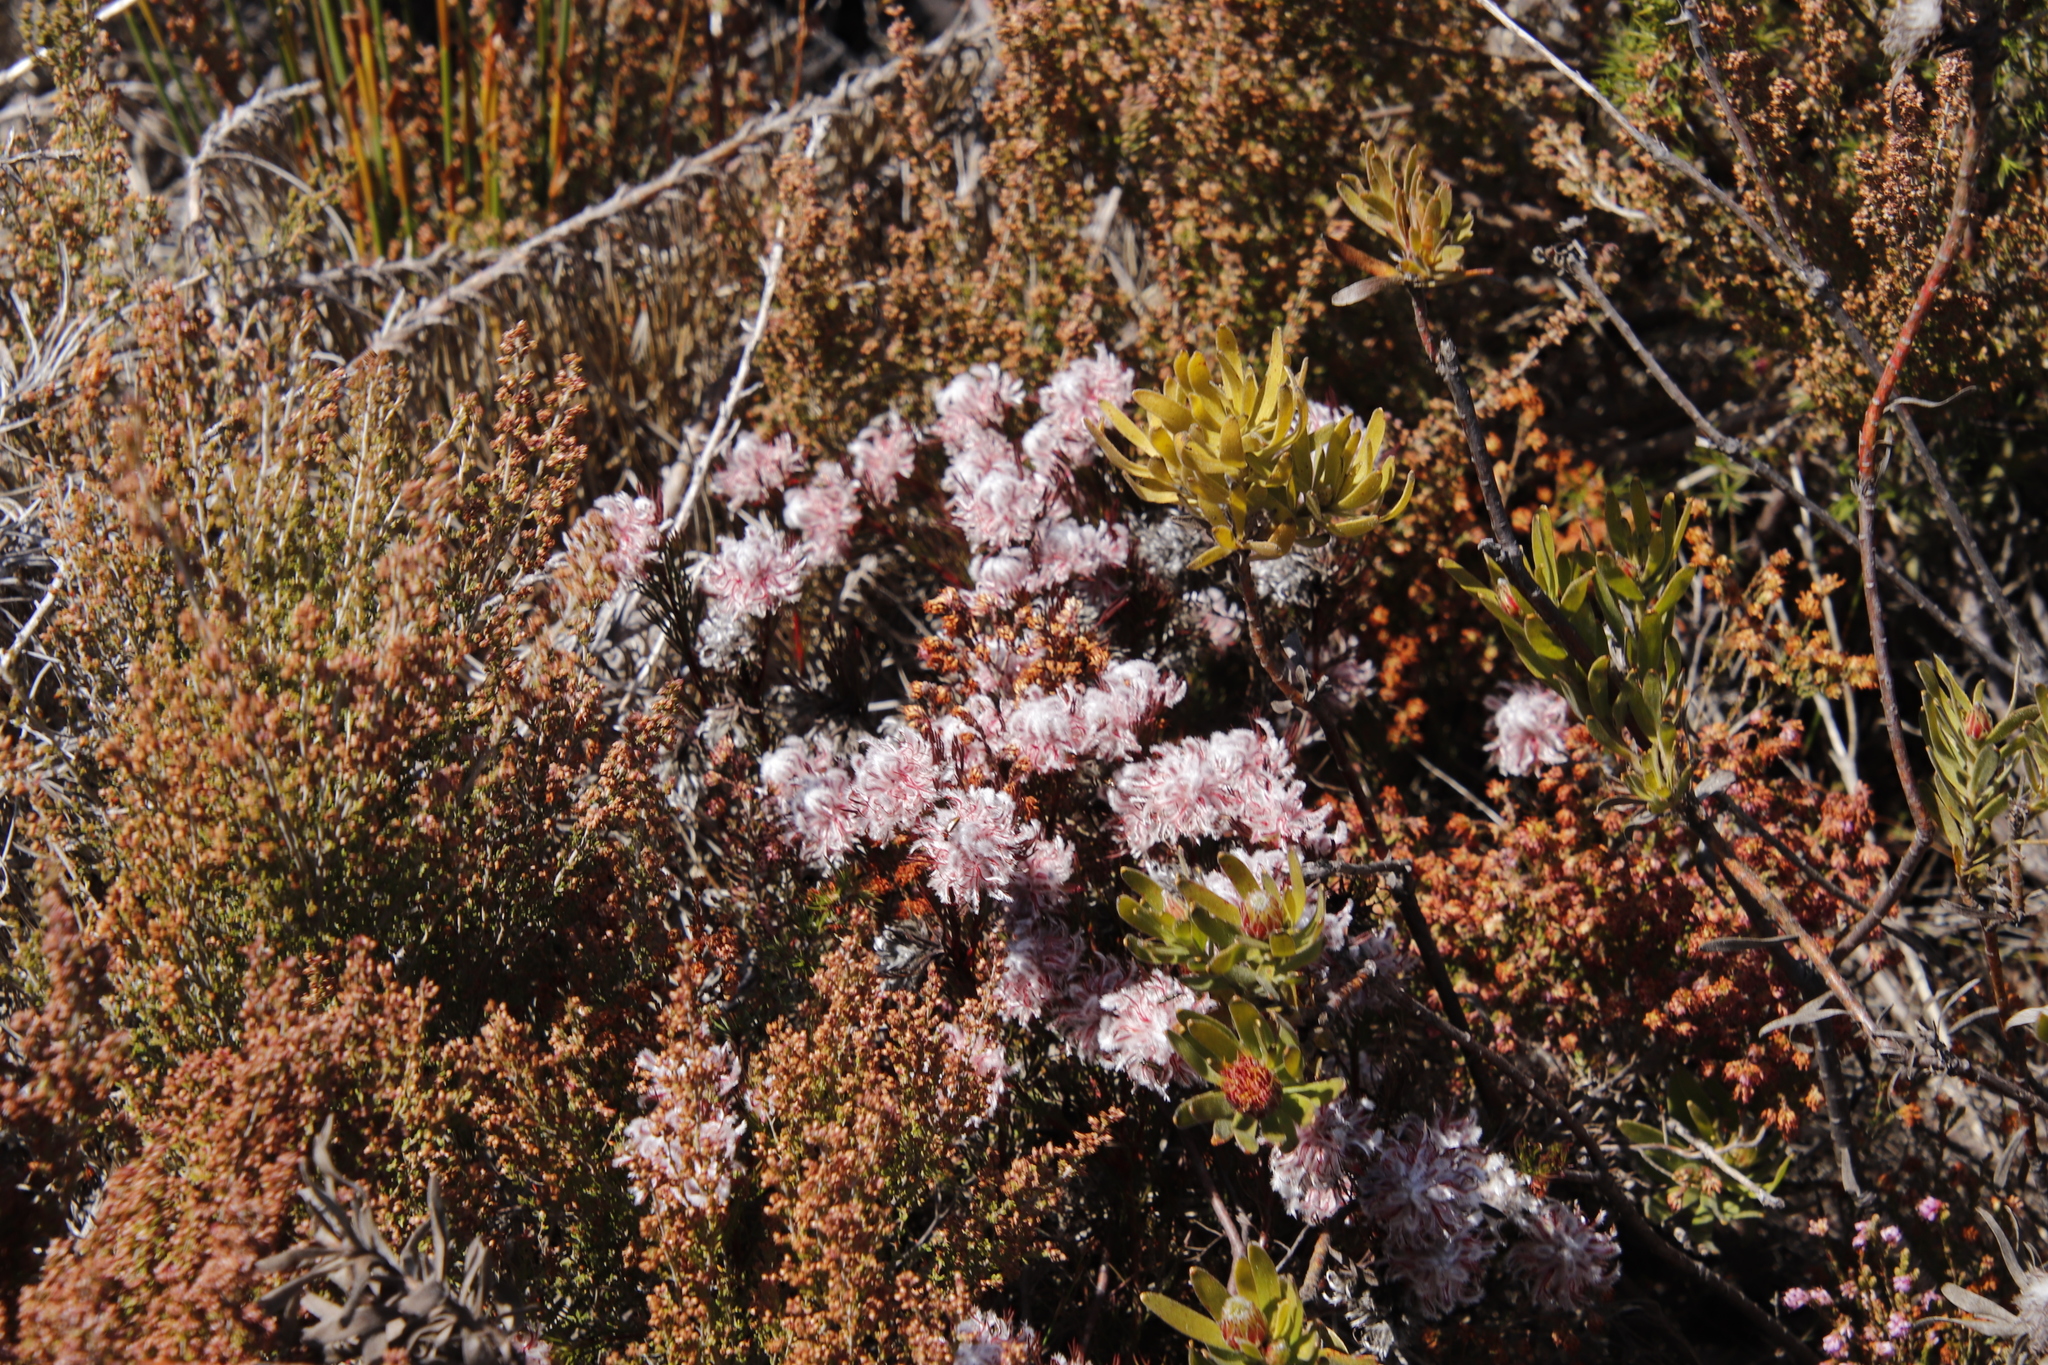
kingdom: Plantae
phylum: Tracheophyta
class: Magnoliopsida
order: Proteales
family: Proteaceae
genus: Serruria
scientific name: Serruria rostellaris
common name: Remote spiderhead
